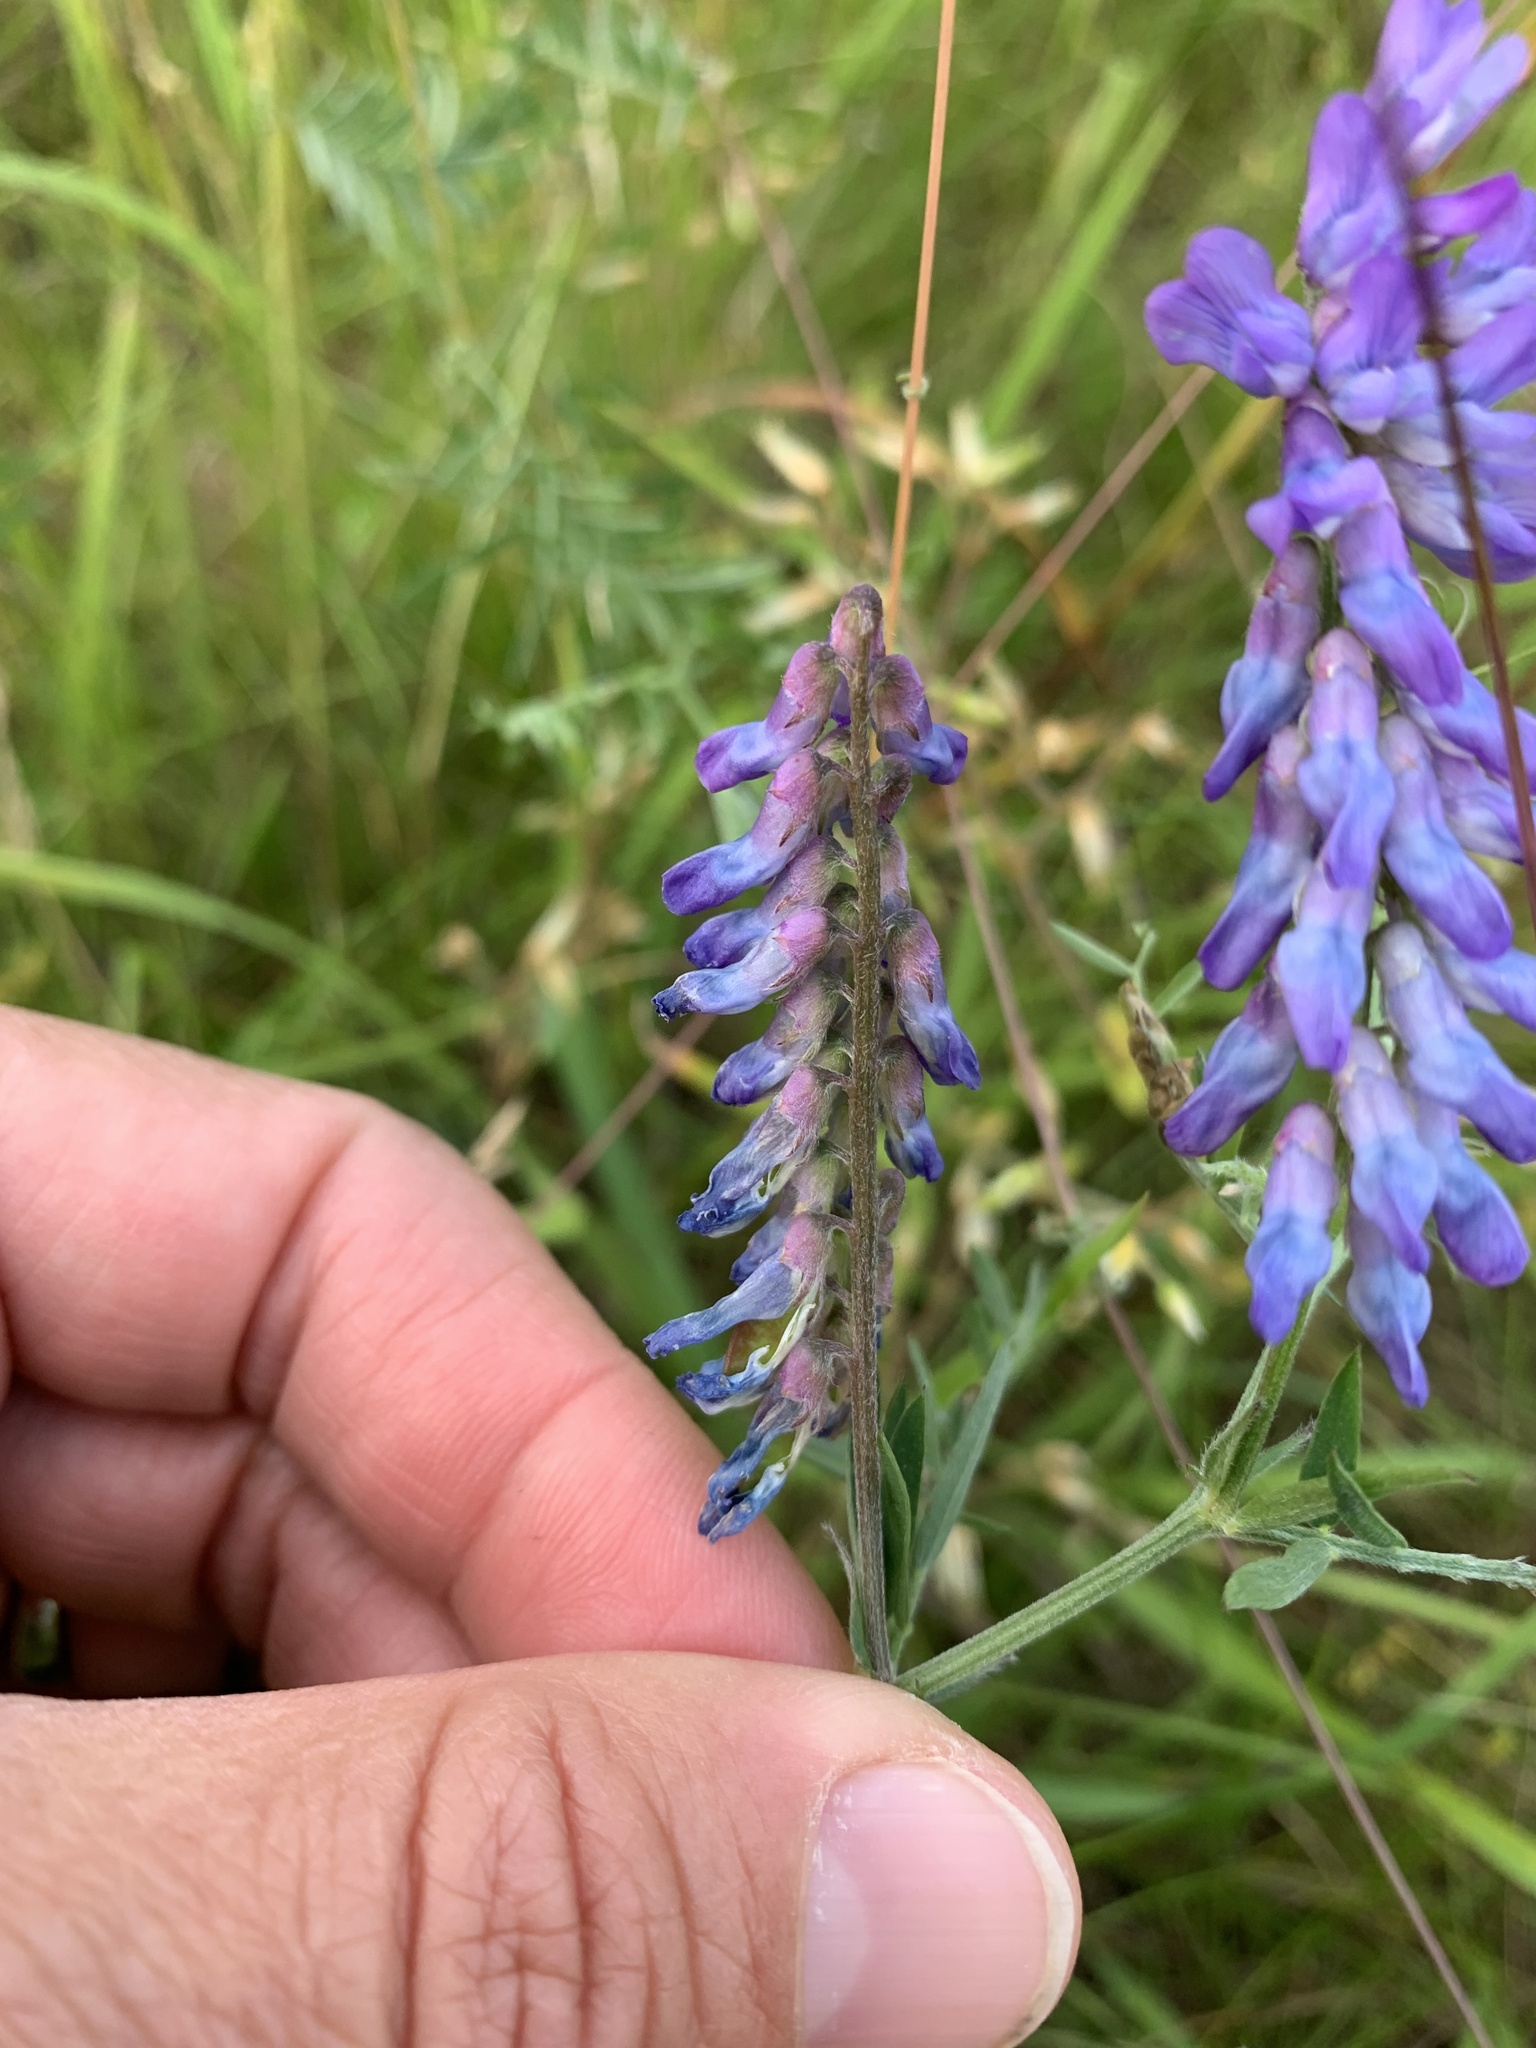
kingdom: Plantae
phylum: Tracheophyta
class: Magnoliopsida
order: Fabales
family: Fabaceae
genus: Vicia
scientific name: Vicia cracca
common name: Bird vetch
